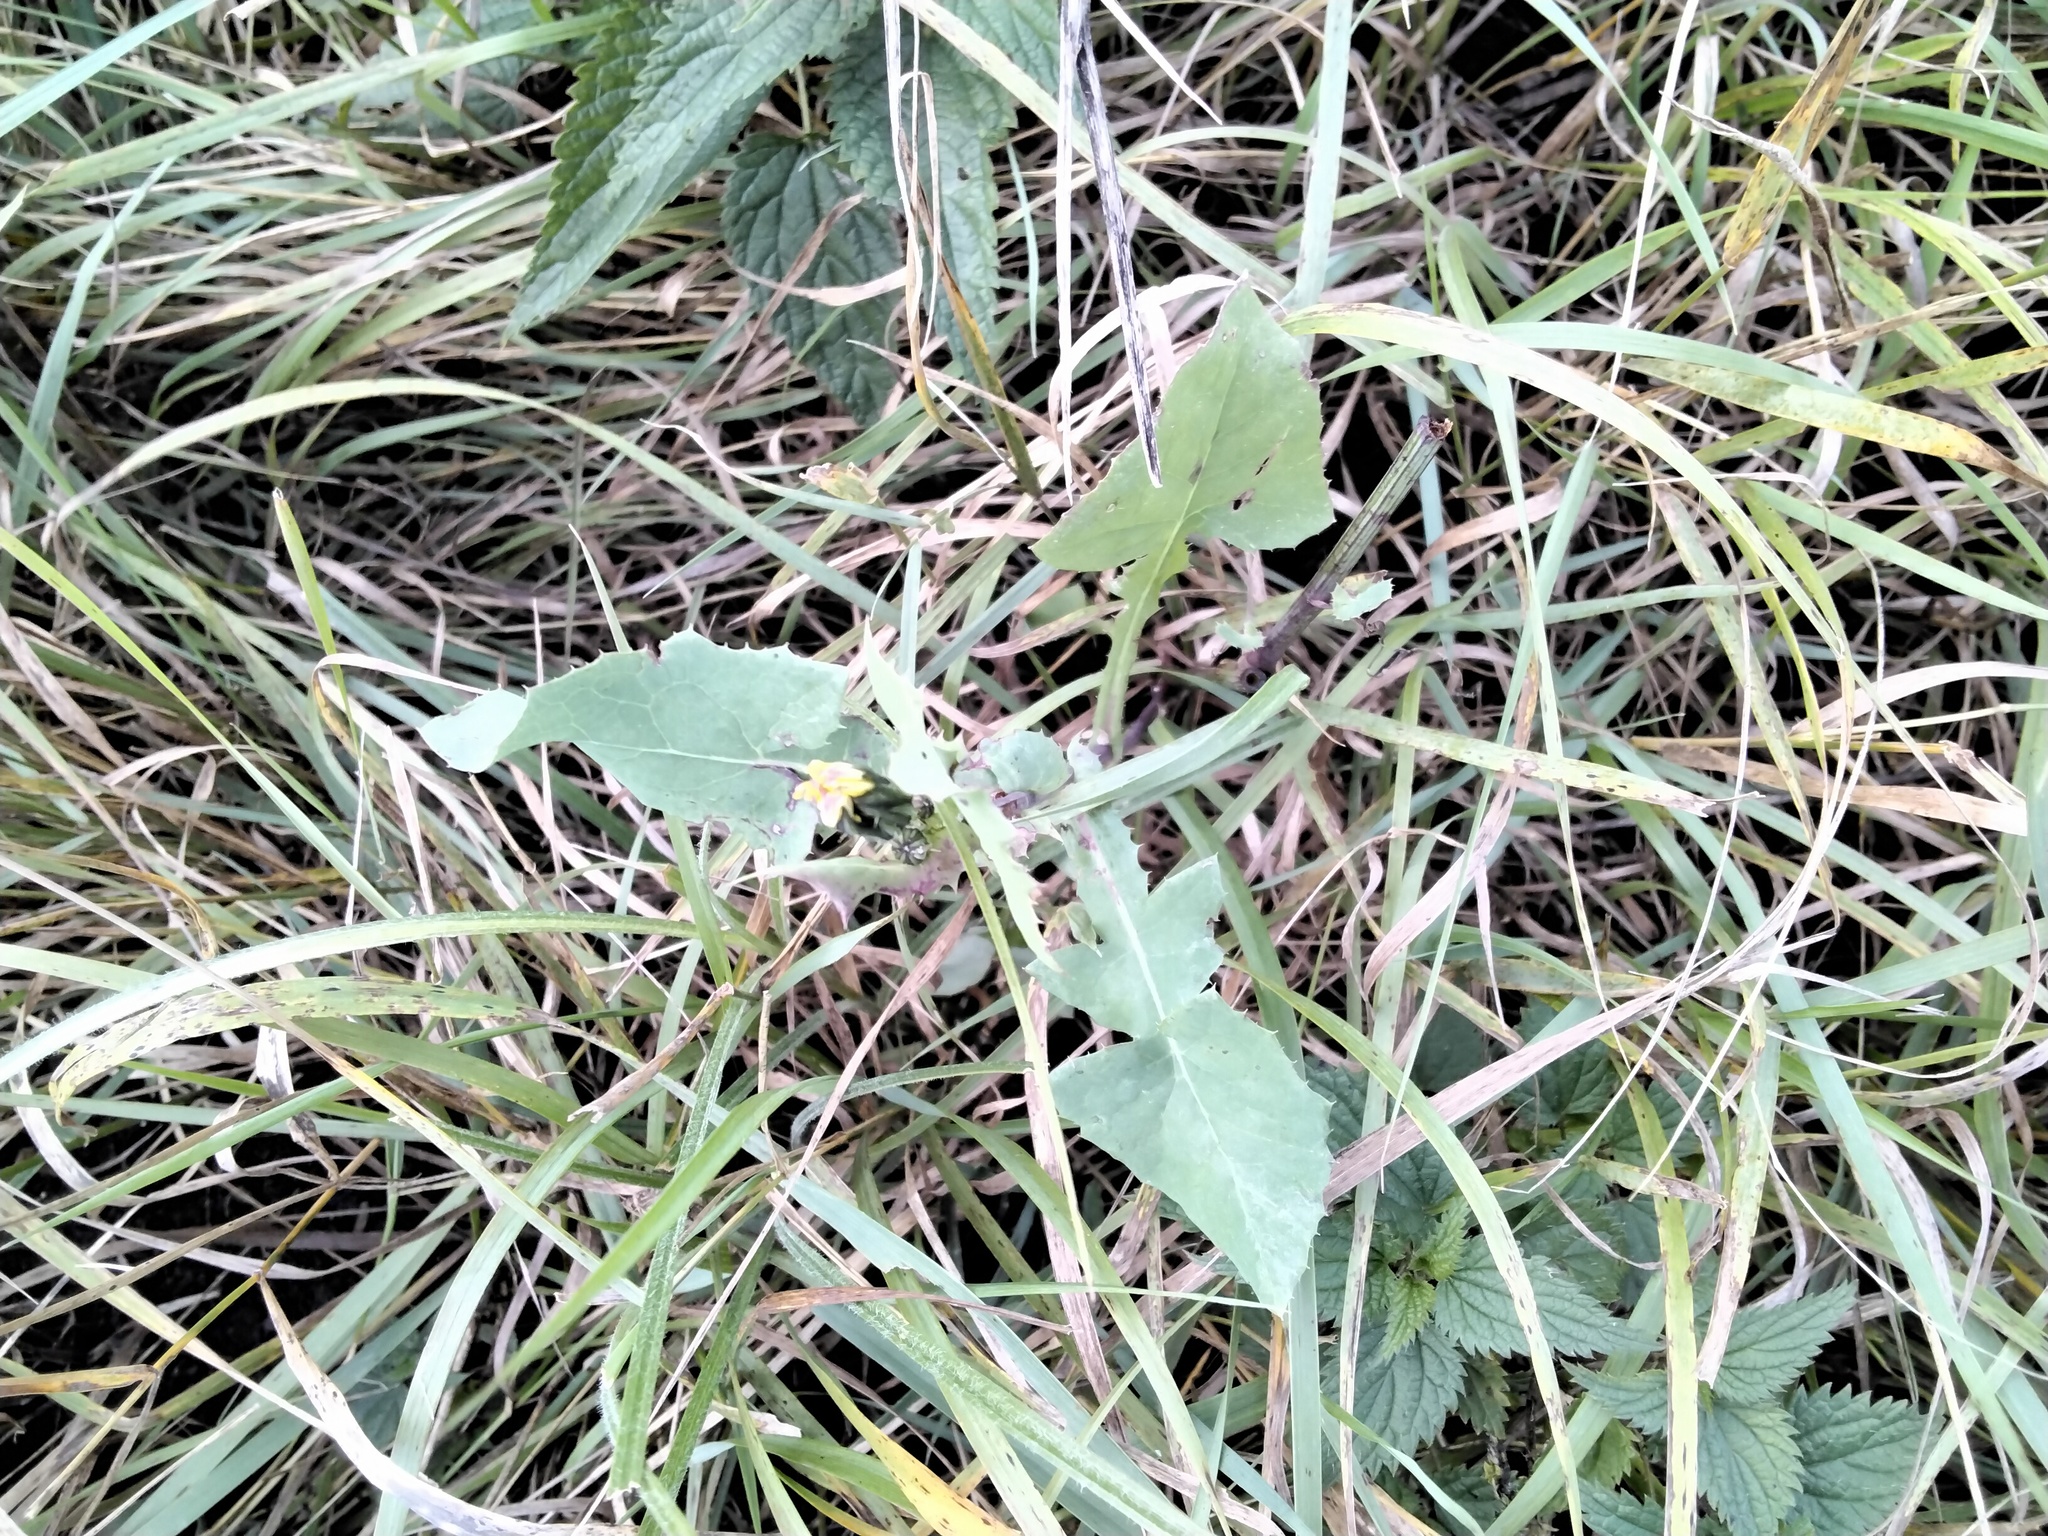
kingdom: Plantae
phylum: Tracheophyta
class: Magnoliopsida
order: Asterales
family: Asteraceae
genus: Sonchus
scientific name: Sonchus oleraceus
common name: Common sowthistle
